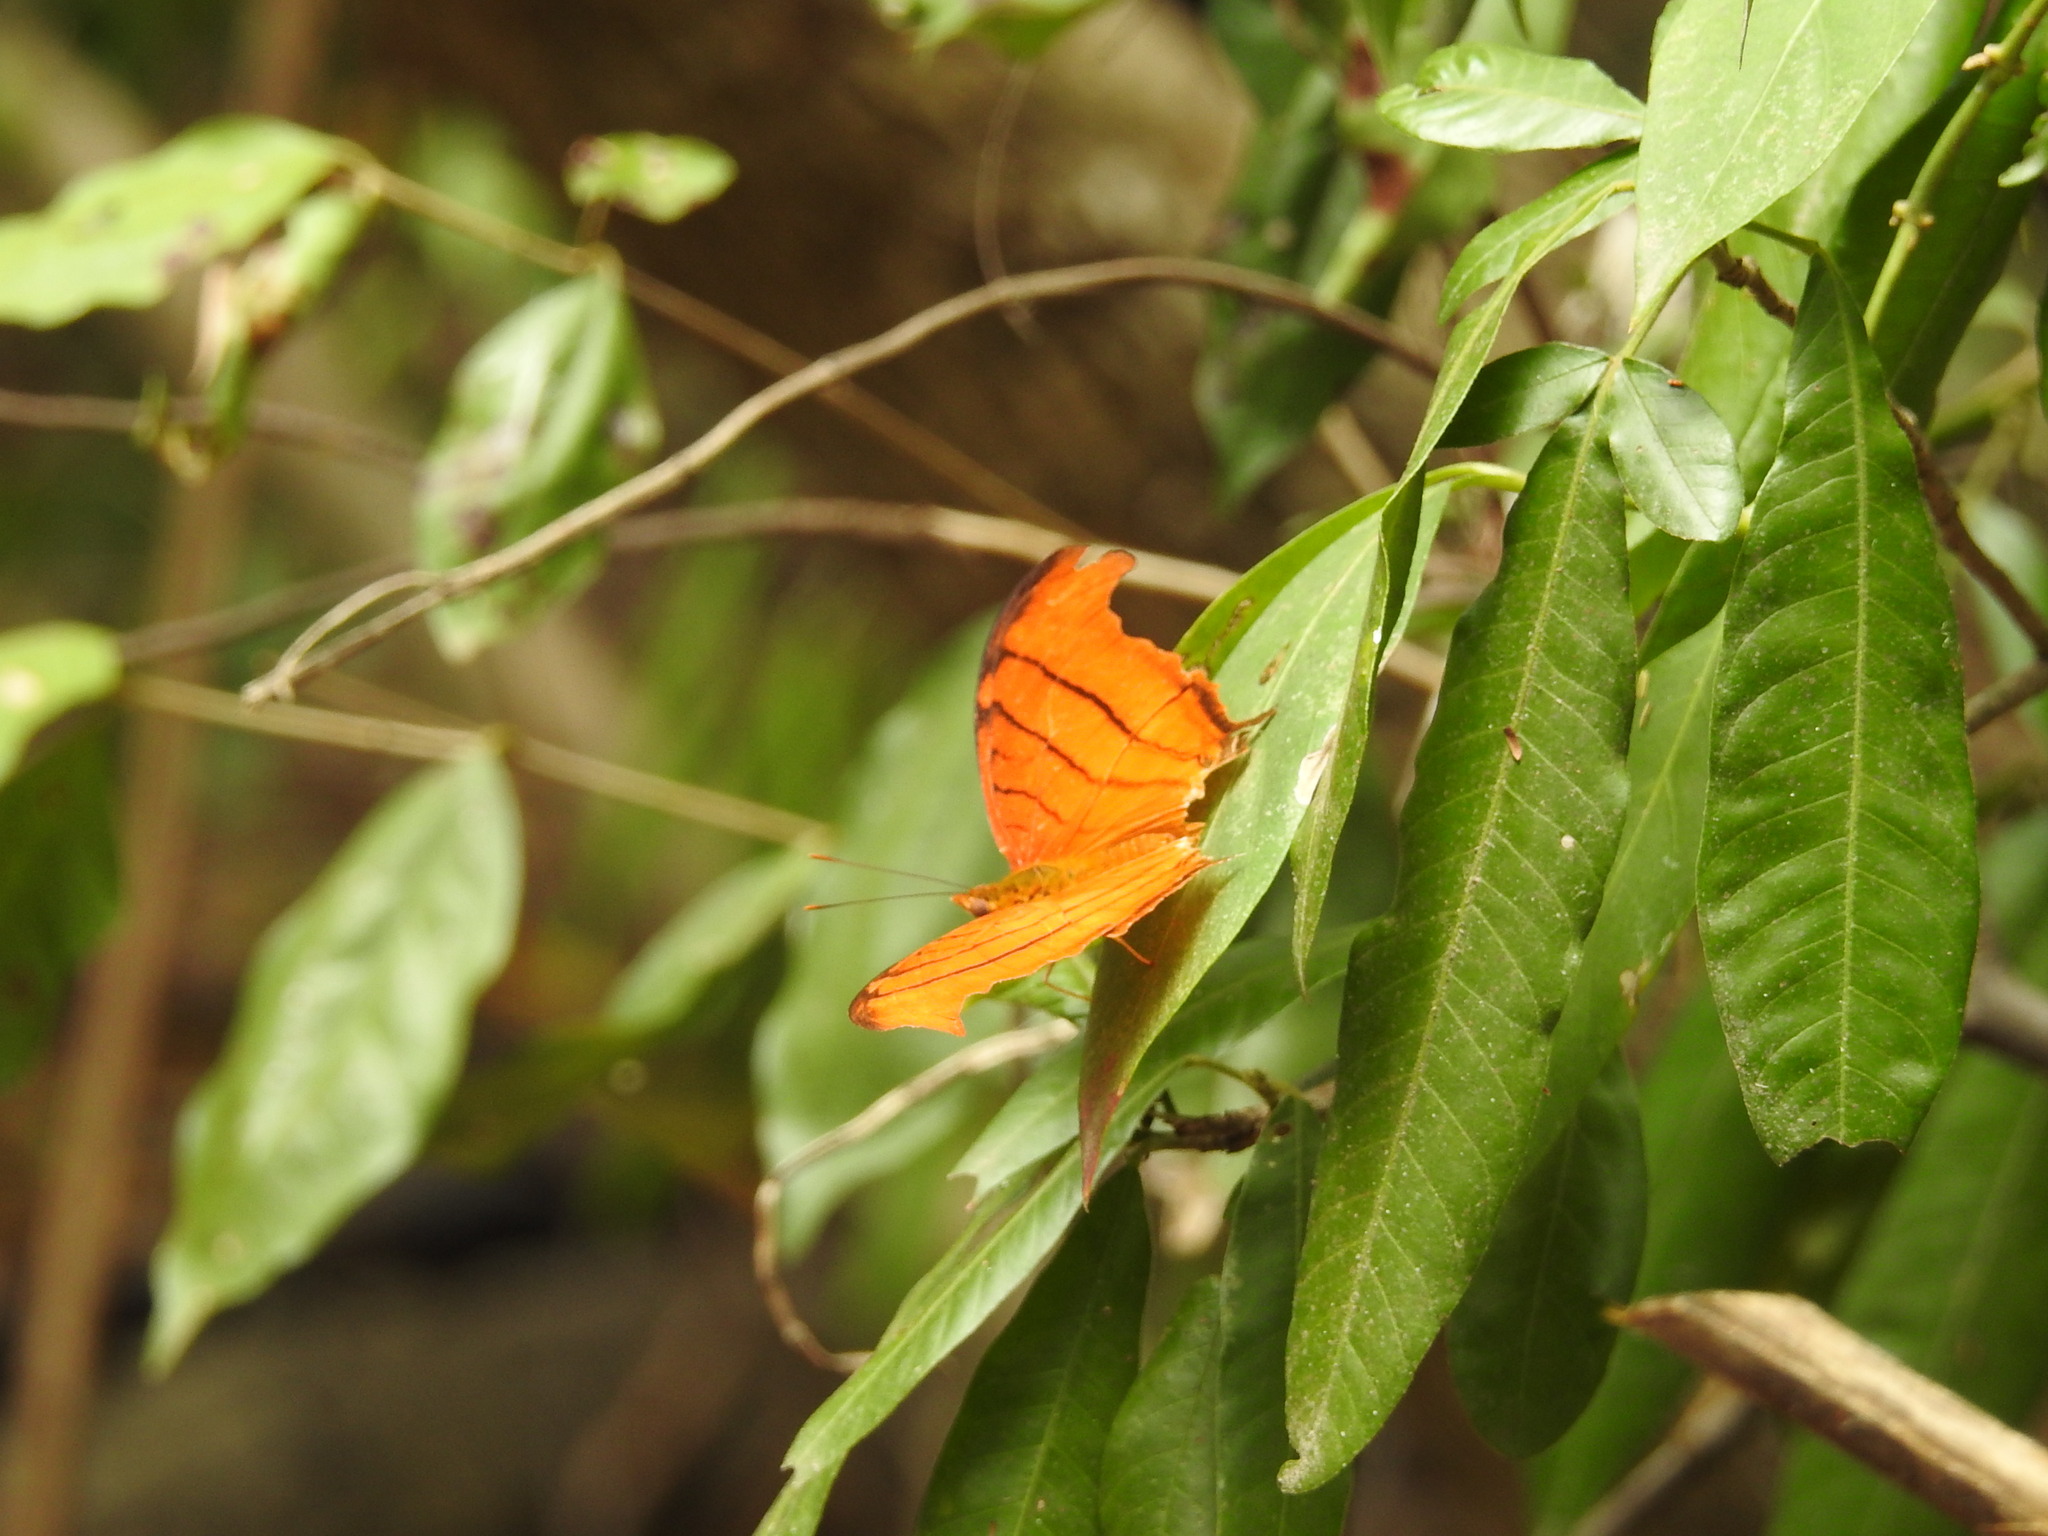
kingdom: Animalia
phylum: Arthropoda
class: Insecta
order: Lepidoptera
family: Nymphalidae
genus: Marpesia
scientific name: Marpesia petreus
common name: Red dagger wing
